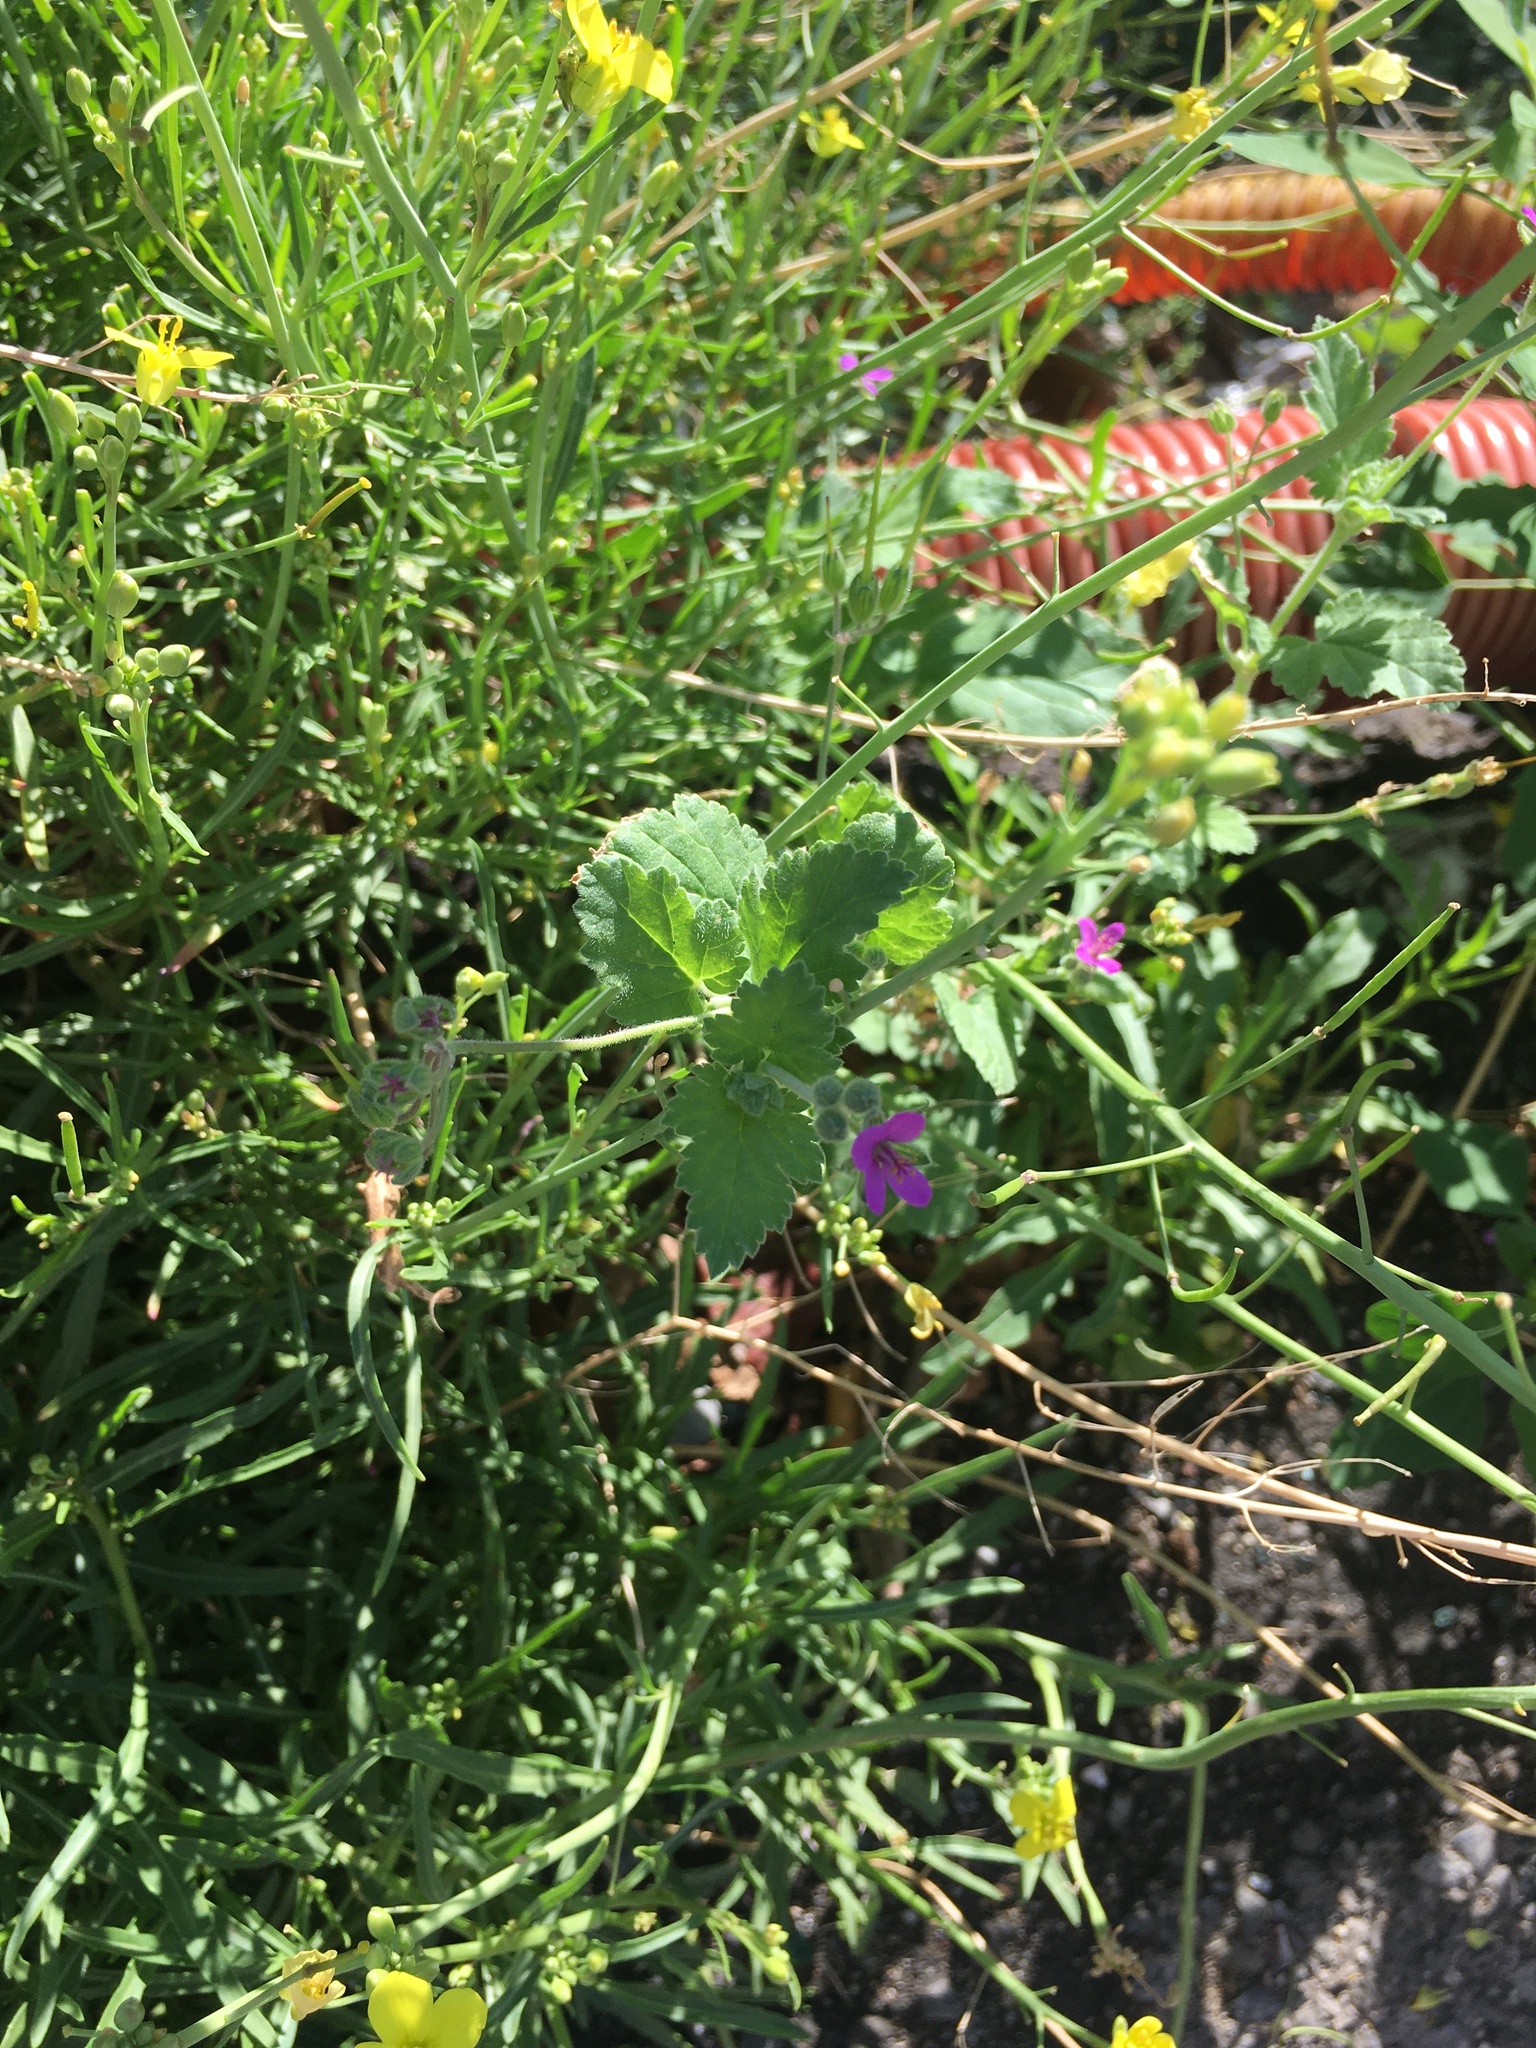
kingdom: Plantae
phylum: Tracheophyta
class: Magnoliopsida
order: Geraniales
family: Geraniaceae
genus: Erodium
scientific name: Erodium malacoides
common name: Soft stork's-bill
